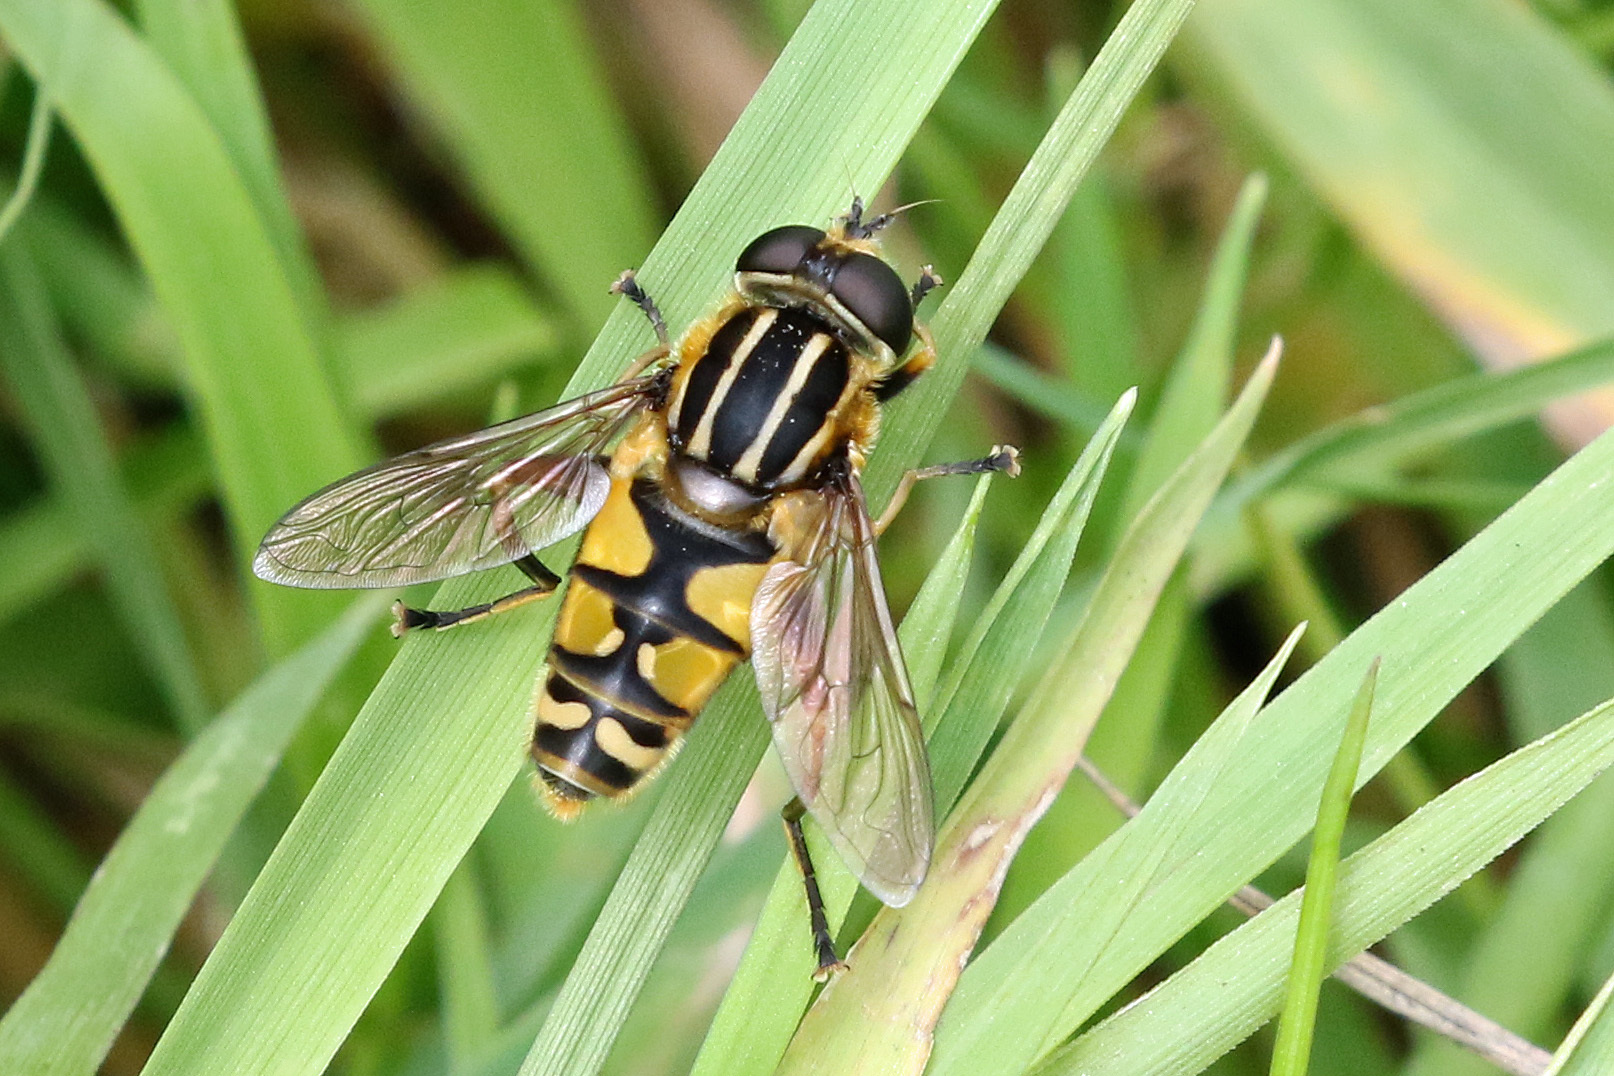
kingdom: Animalia
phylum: Arthropoda
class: Insecta
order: Diptera
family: Syrphidae
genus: Helophilus
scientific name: Helophilus pendulus
